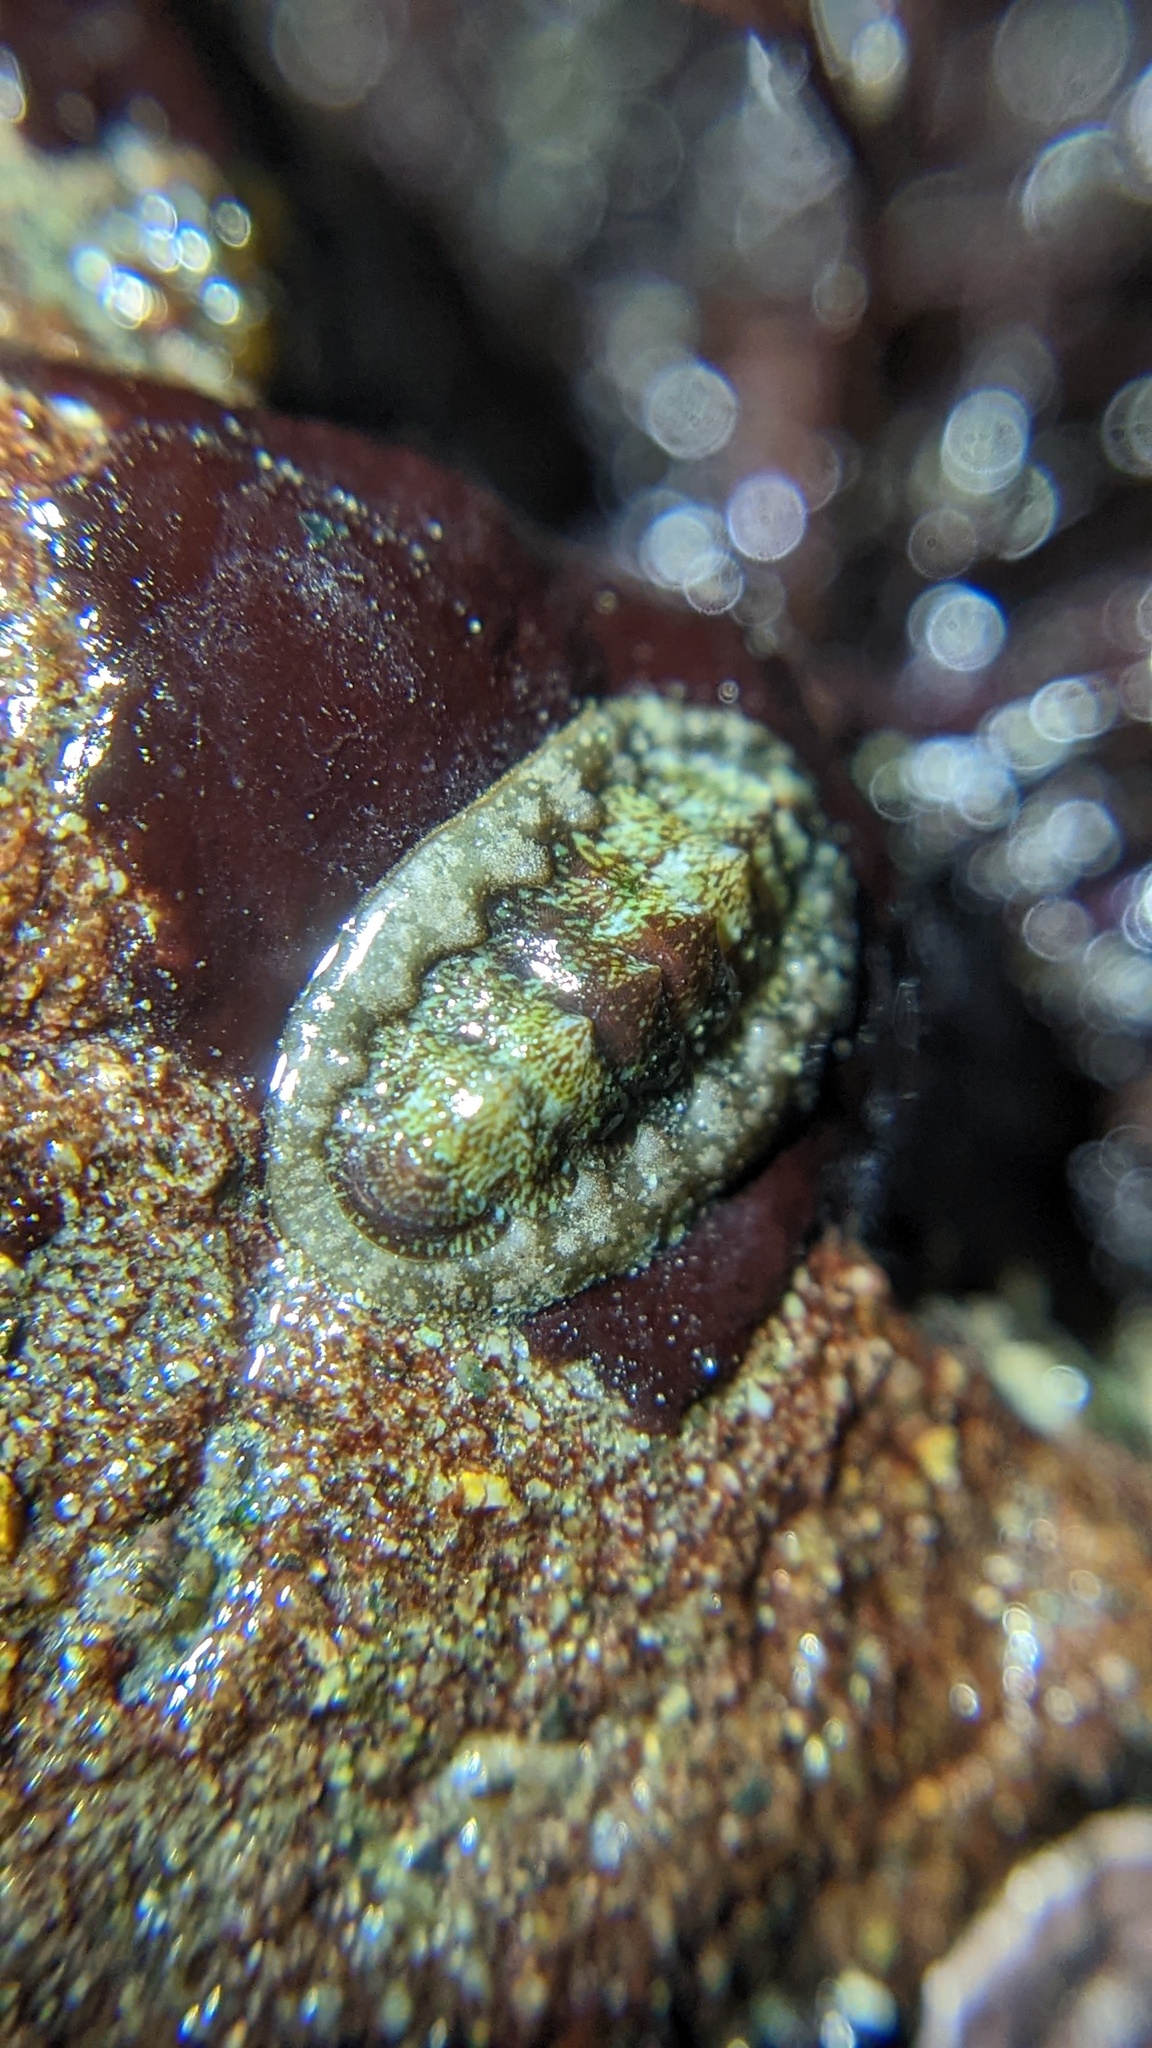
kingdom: Animalia
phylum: Mollusca
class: Polyplacophora
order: Chitonida
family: Tonicellidae
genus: Cyanoplax
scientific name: Cyanoplax dentiens
